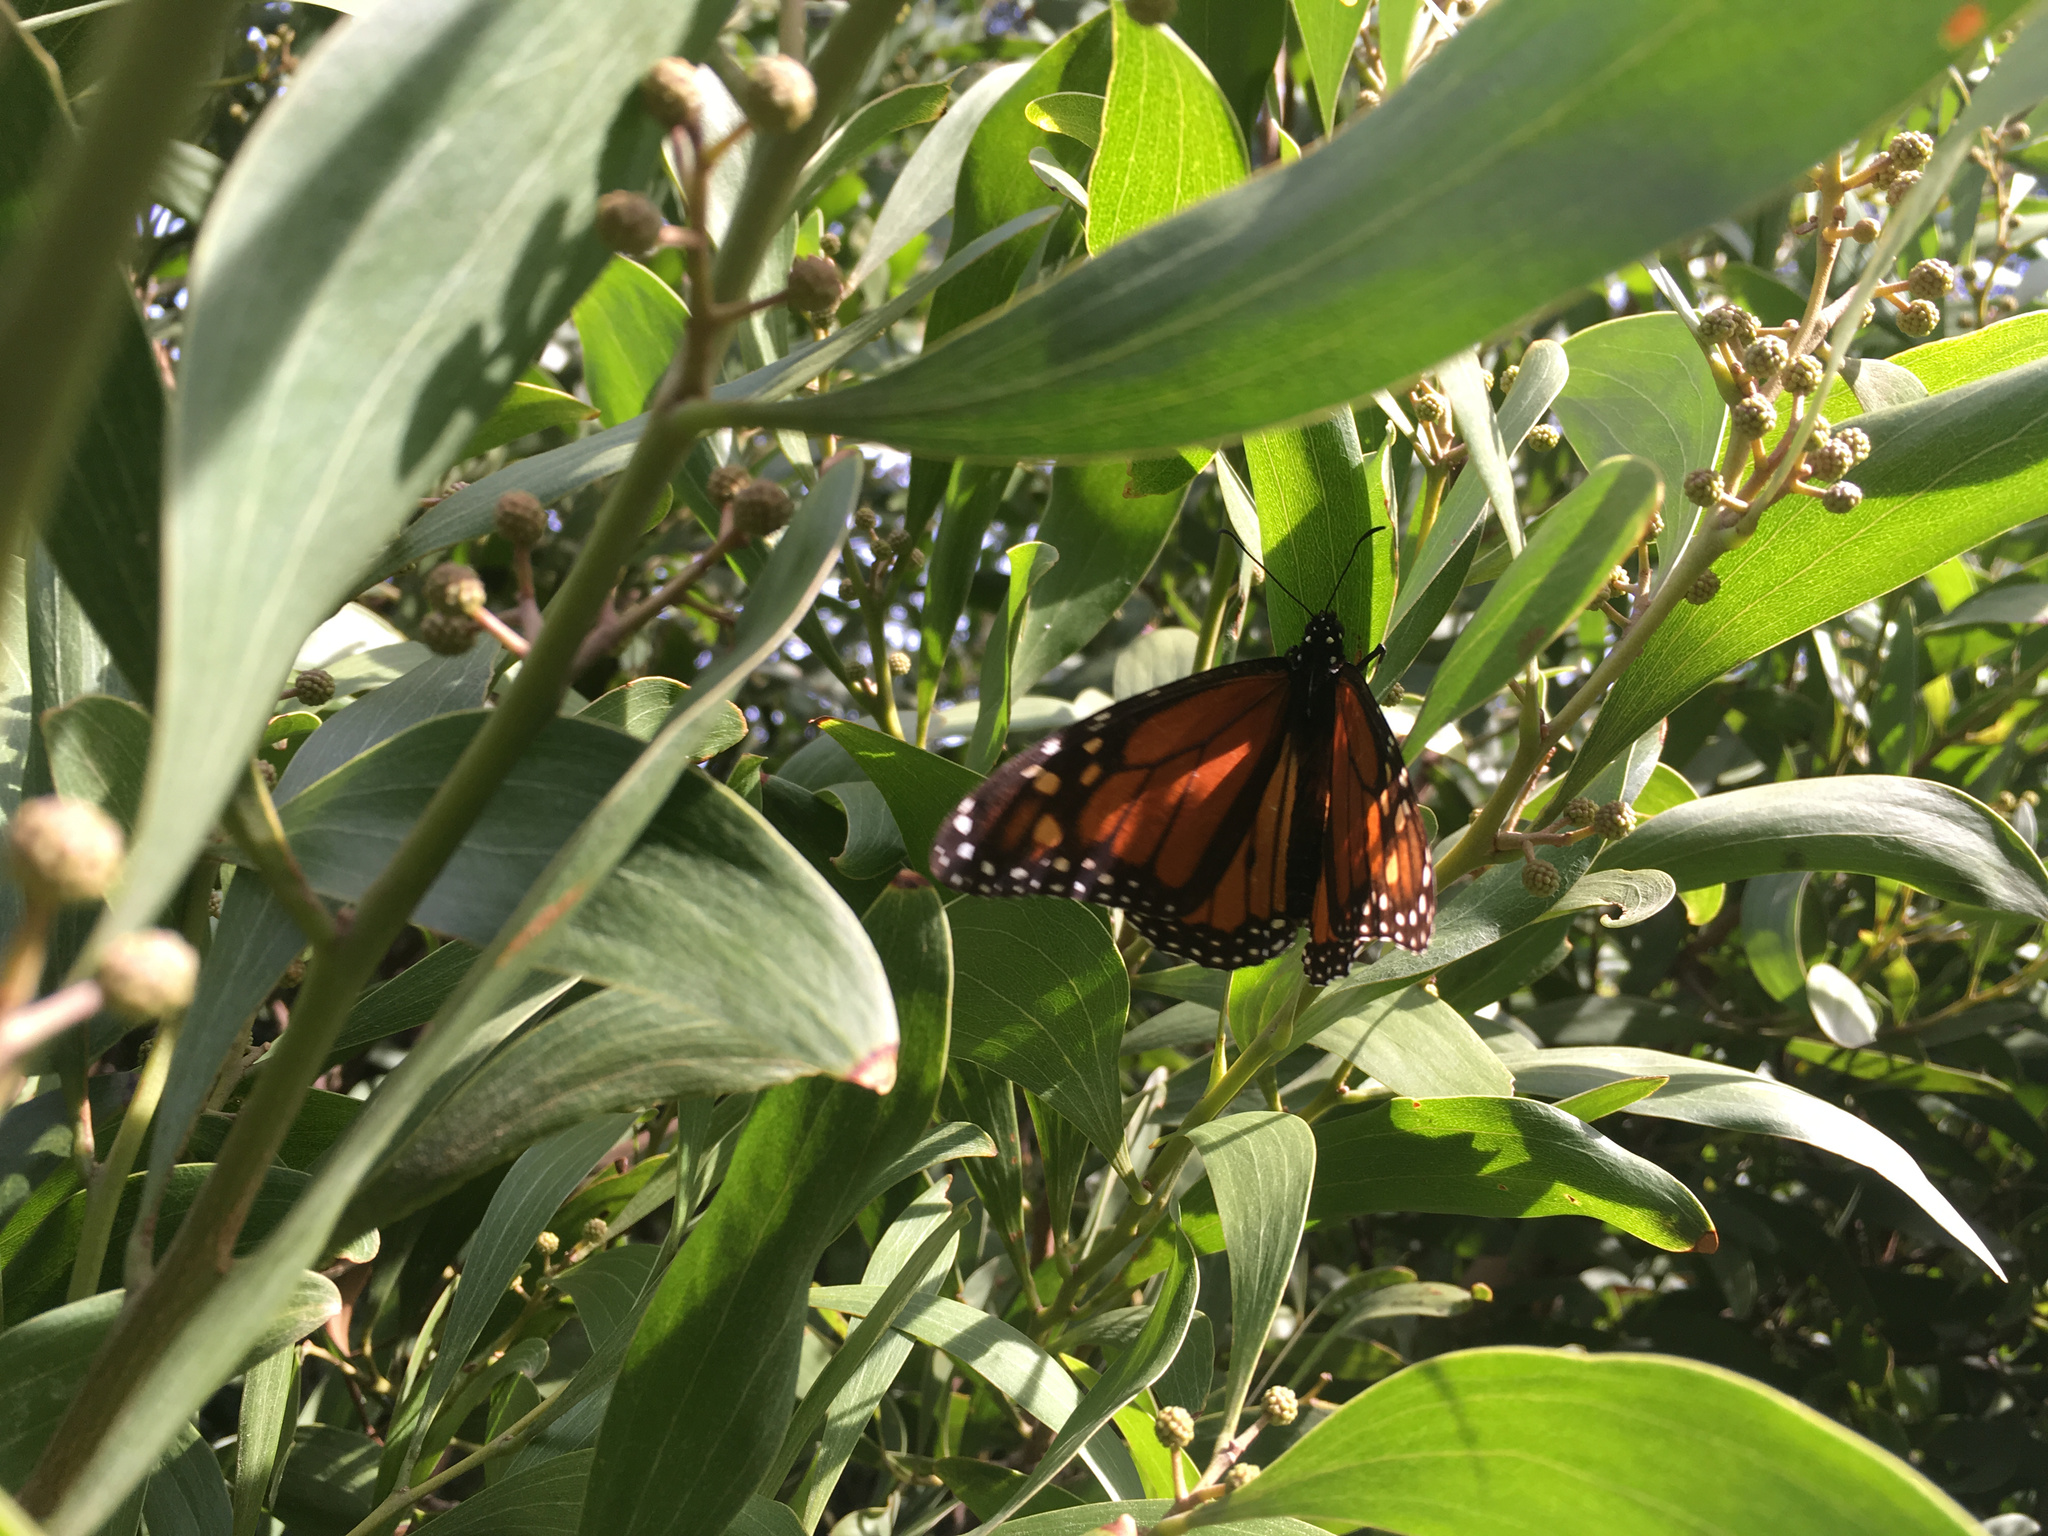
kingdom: Animalia
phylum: Arthropoda
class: Insecta
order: Lepidoptera
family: Nymphalidae
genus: Danaus
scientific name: Danaus plexippus
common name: Monarch
